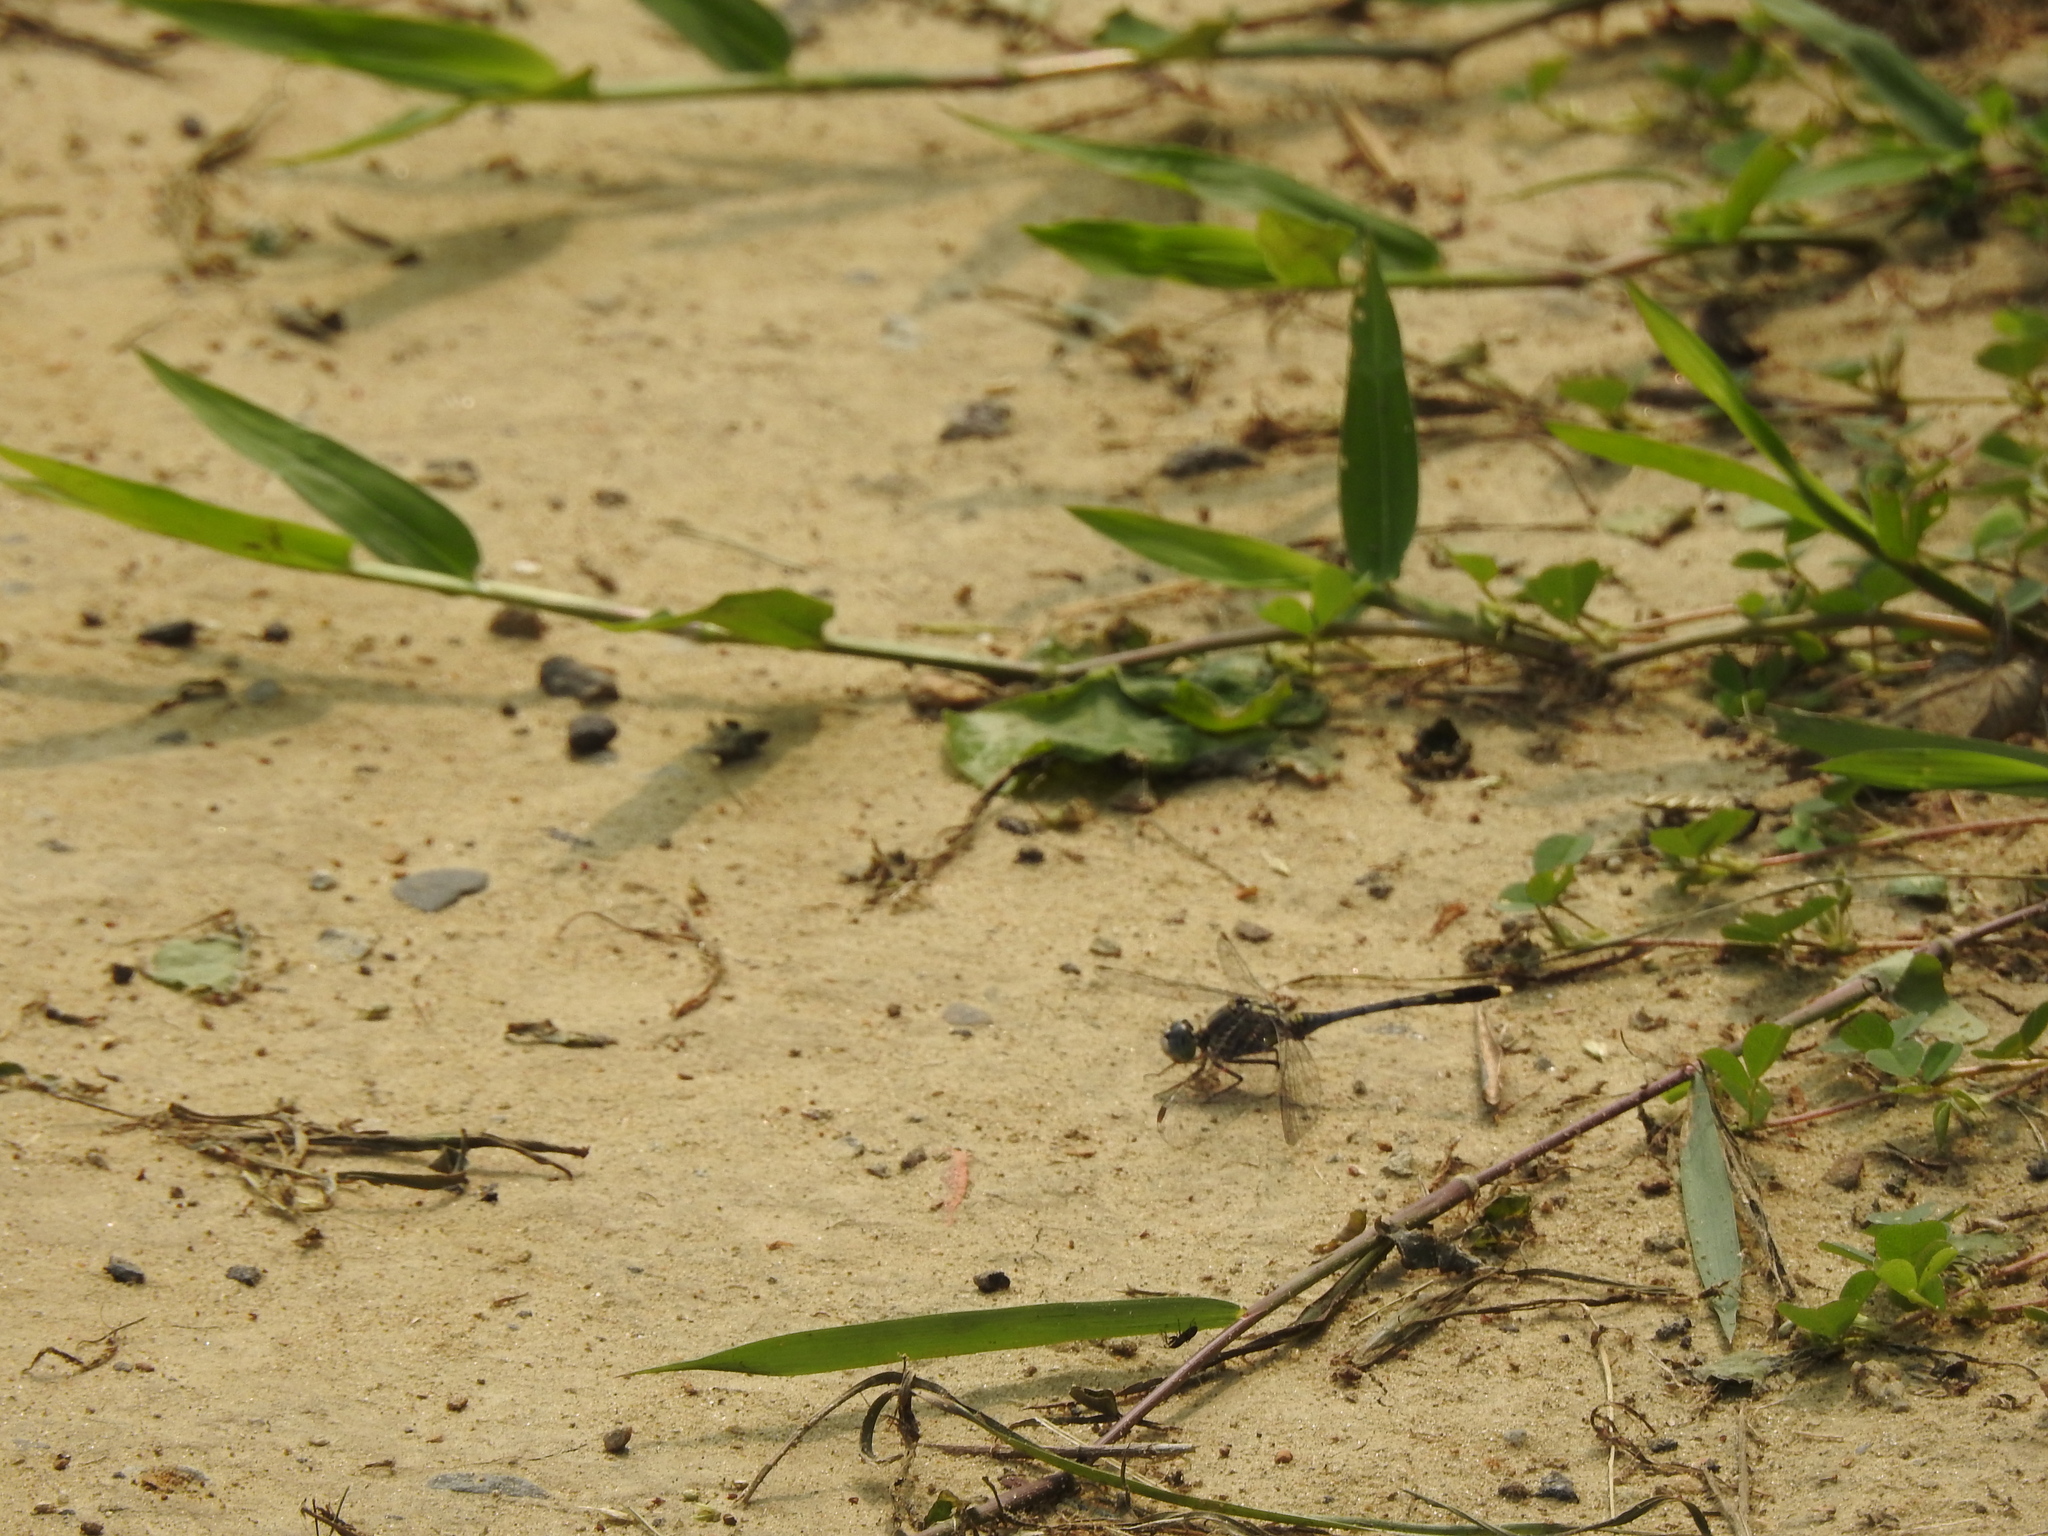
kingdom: Animalia
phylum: Arthropoda
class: Insecta
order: Odonata
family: Libellulidae
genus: Diplacodes
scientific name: Diplacodes trivialis
